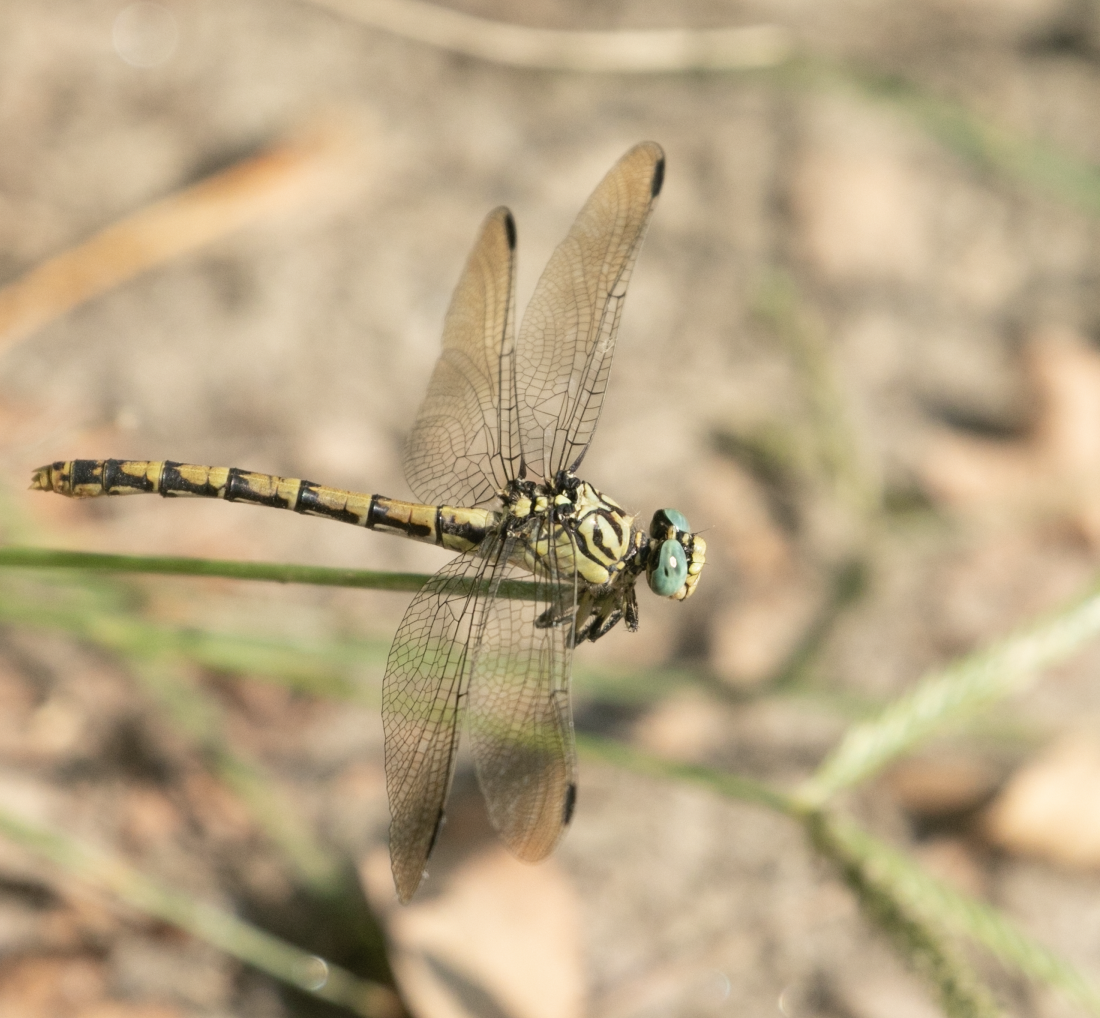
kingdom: Animalia
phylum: Arthropoda
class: Insecta
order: Odonata
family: Gomphidae
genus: Onychogomphus
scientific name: Onychogomphus forcipatus
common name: Small pincertail
